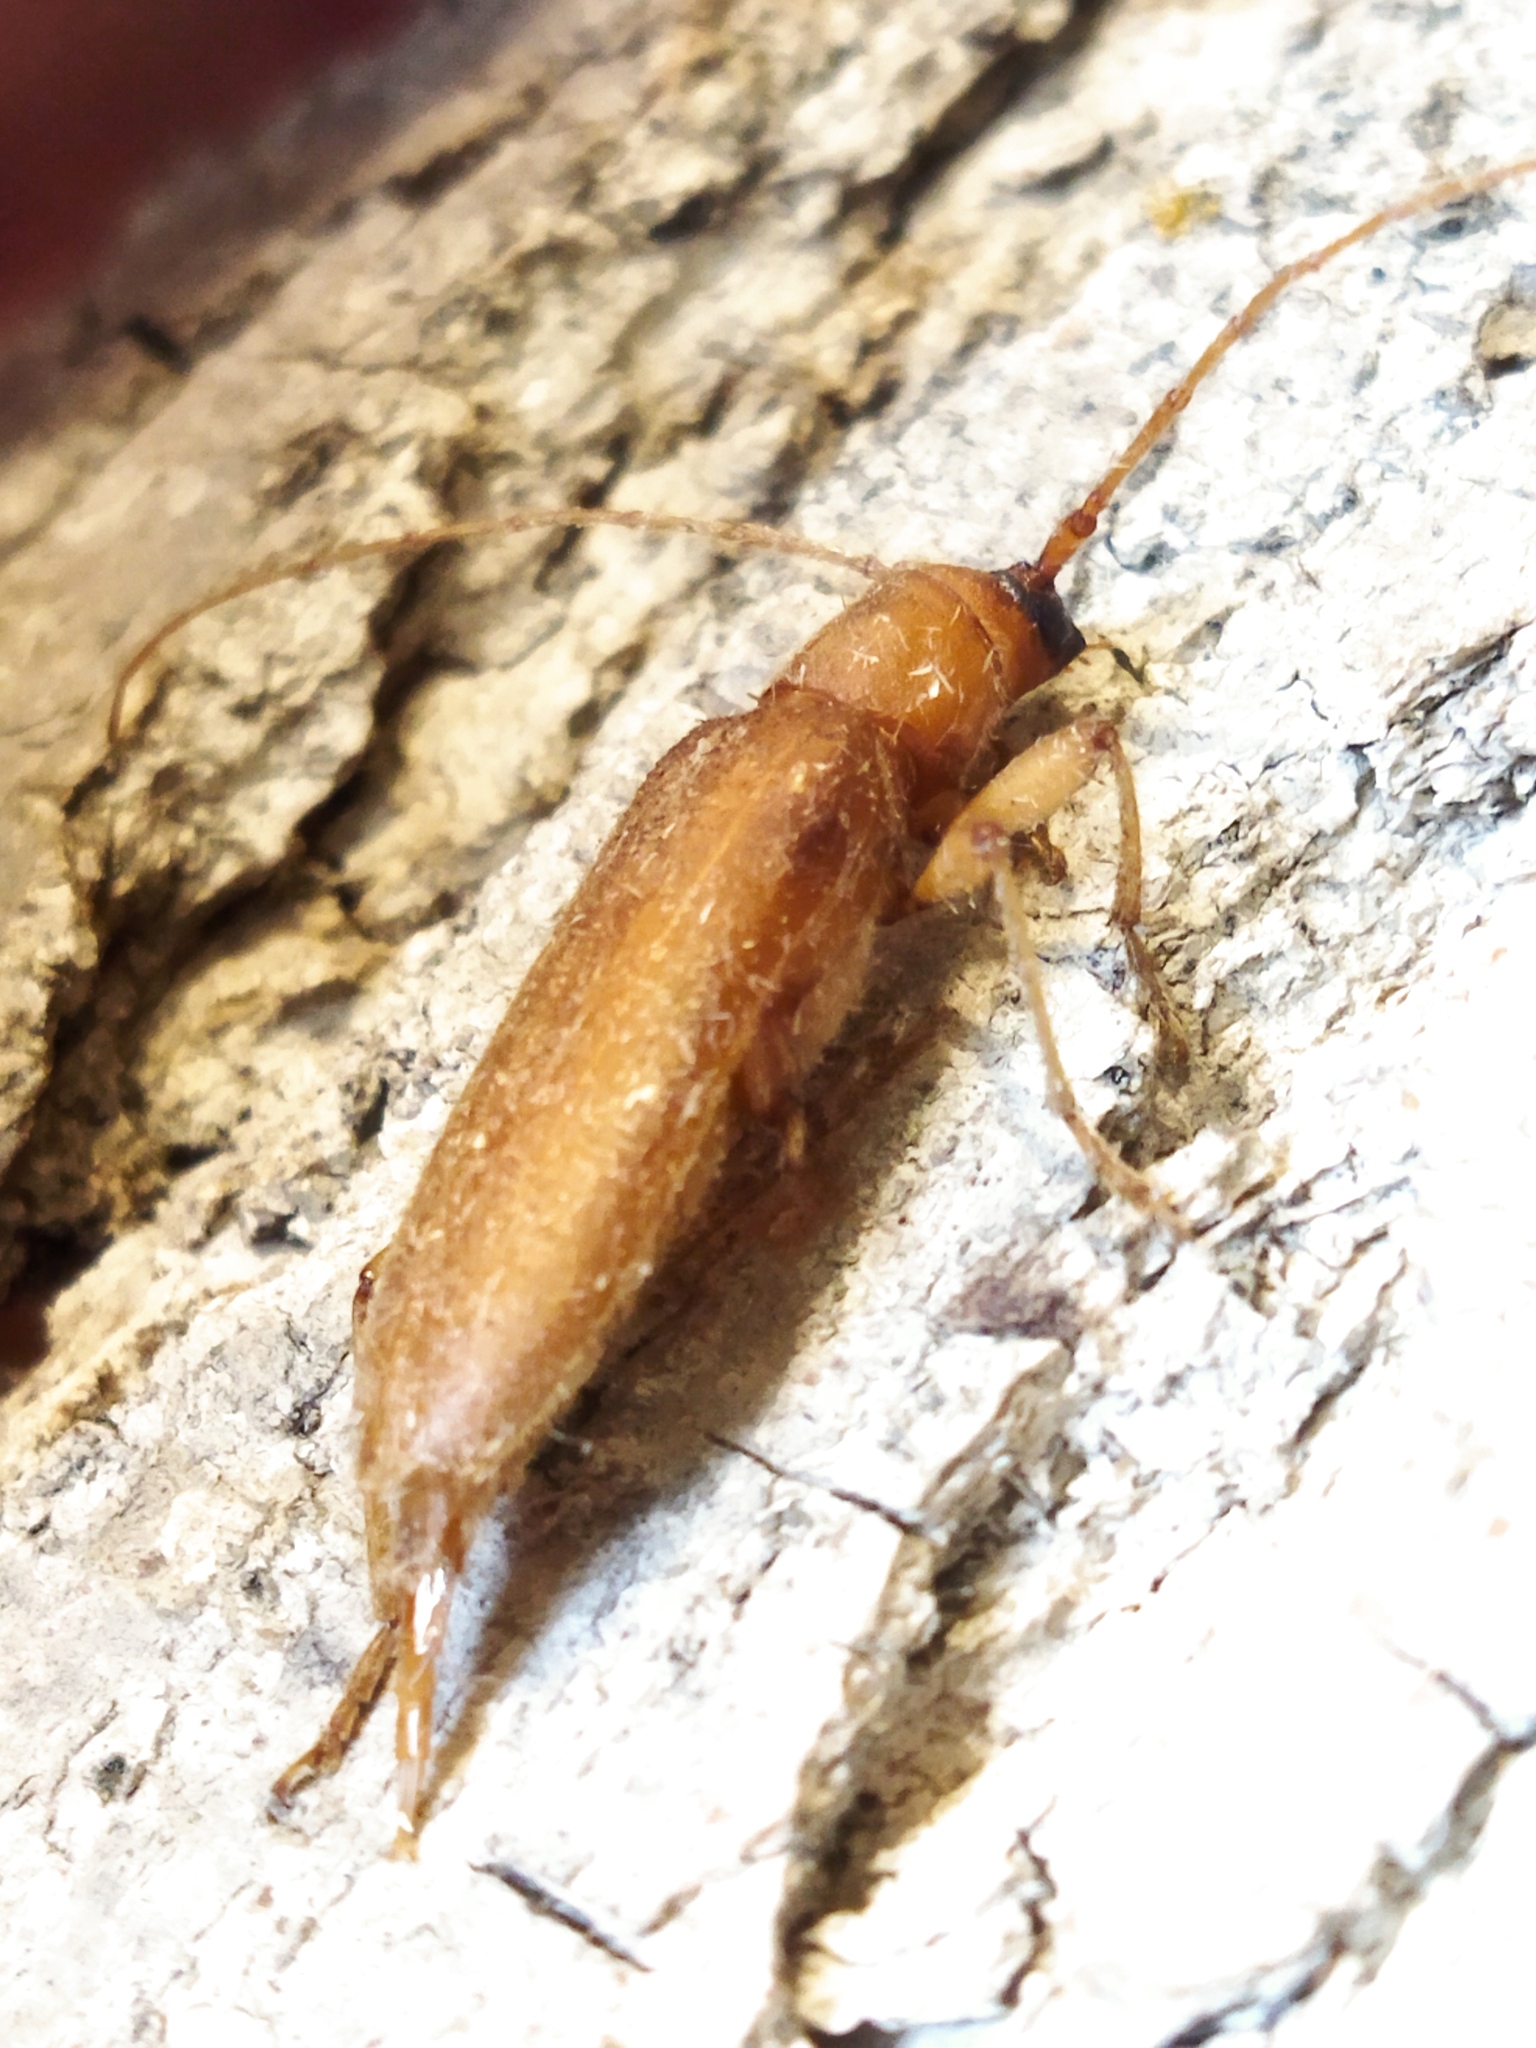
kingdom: Animalia
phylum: Arthropoda
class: Insecta
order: Coleoptera
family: Cerambycidae
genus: Stromatium
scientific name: Stromatium auratum
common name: Long-horned beetle
